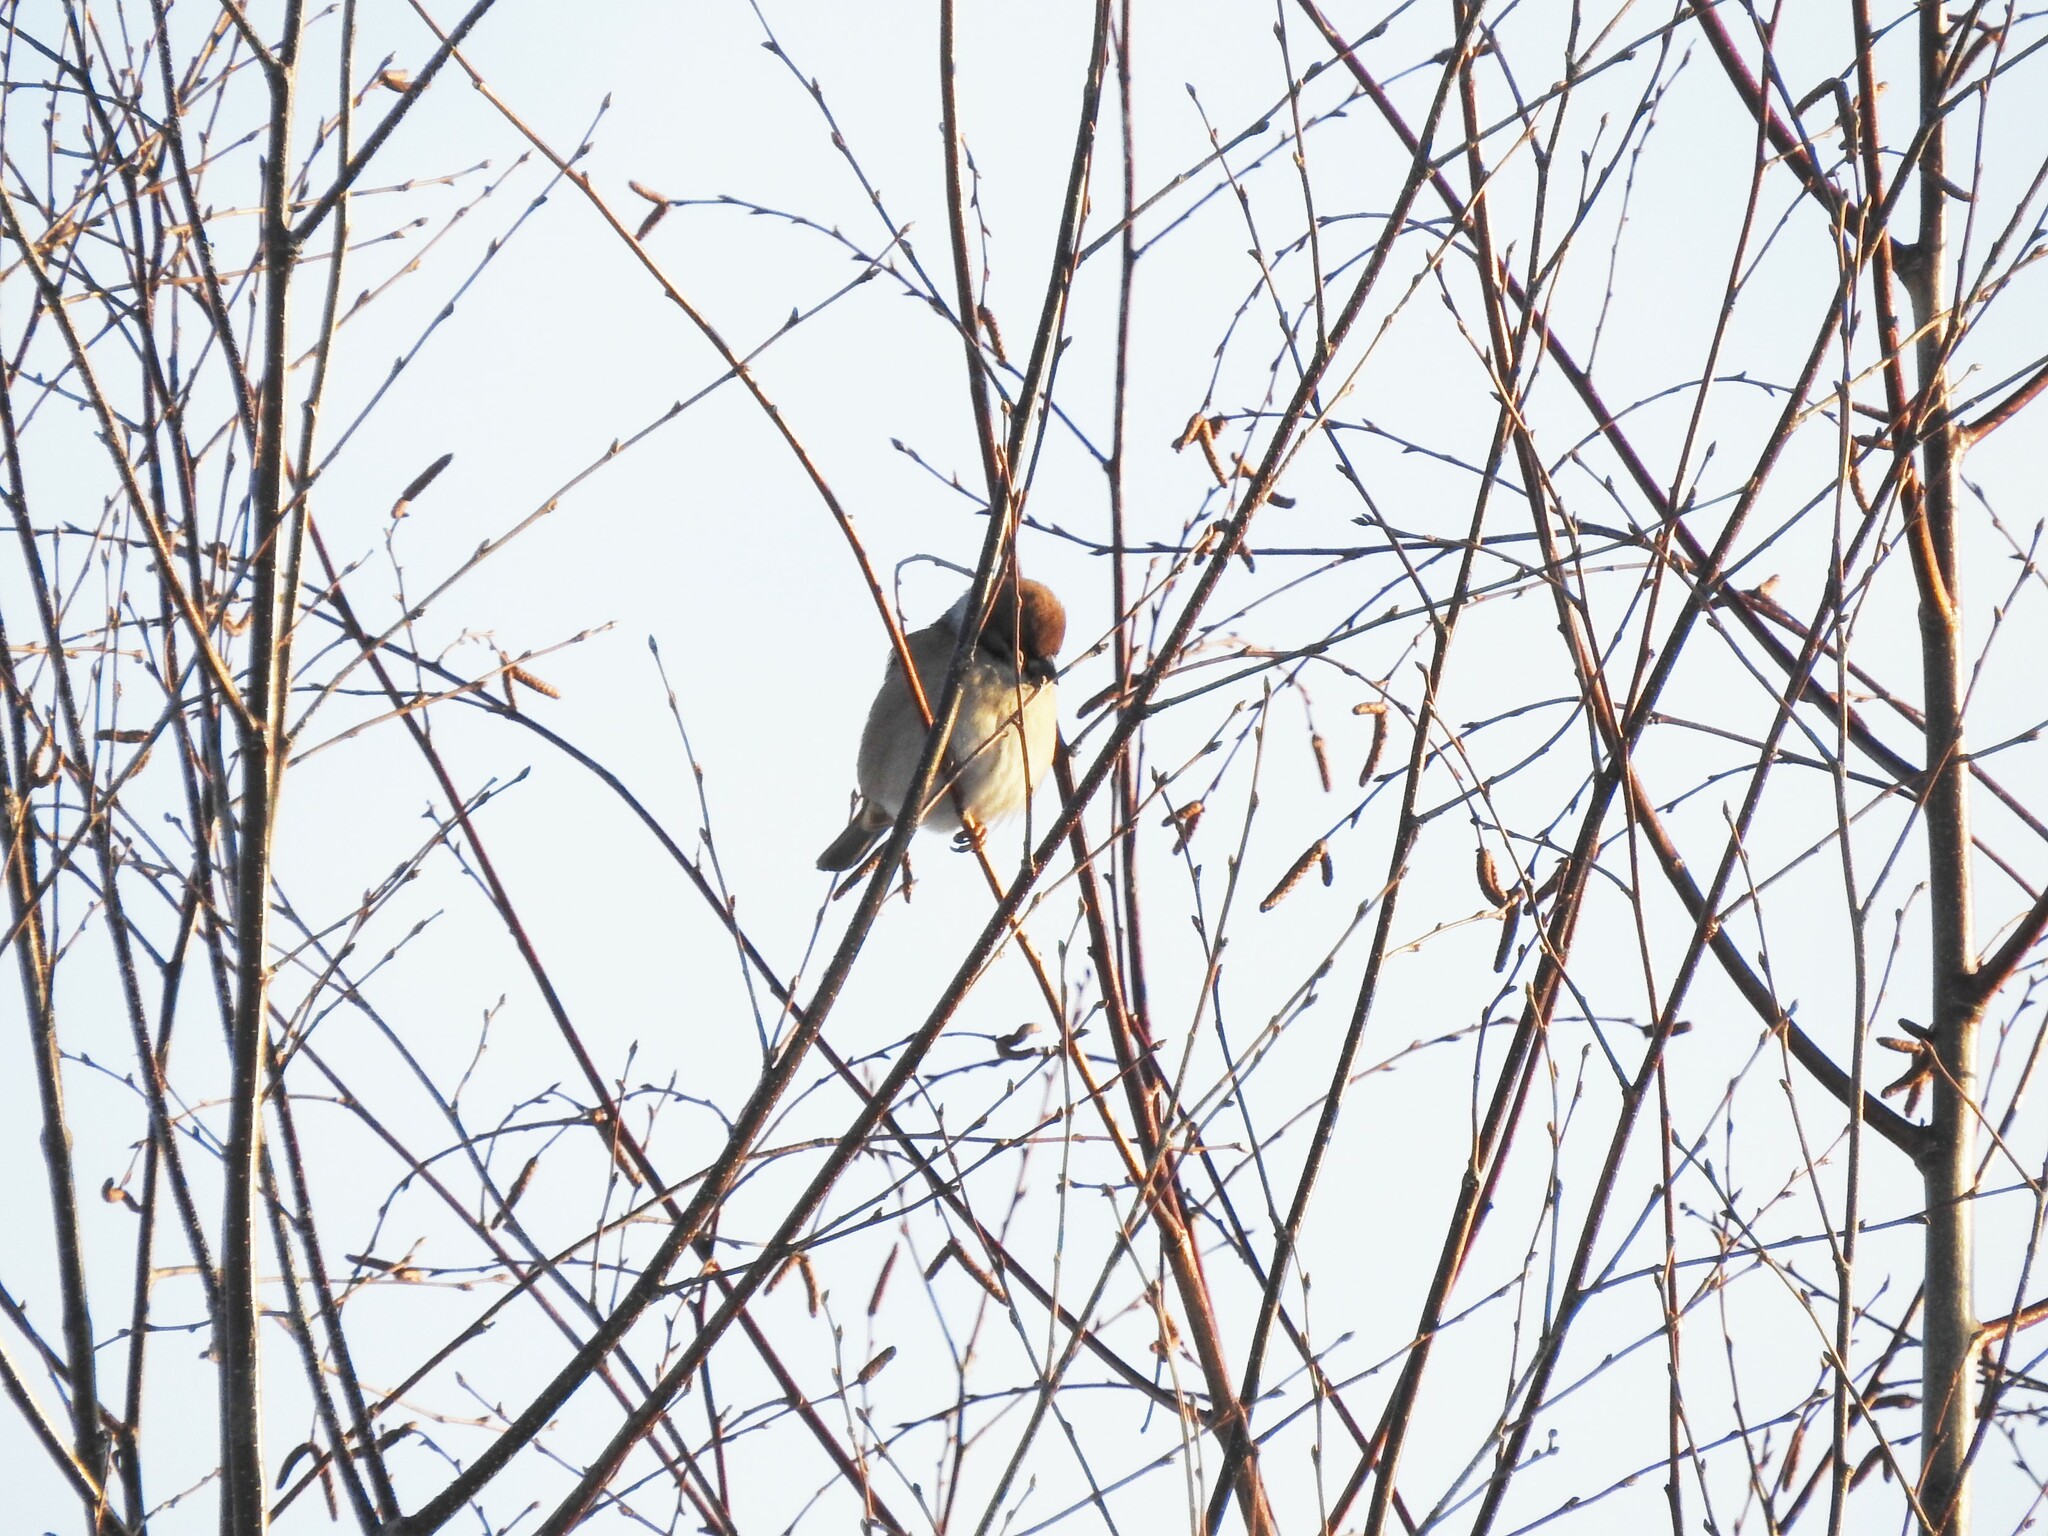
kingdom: Animalia
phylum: Chordata
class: Aves
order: Passeriformes
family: Passeridae
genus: Passer
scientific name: Passer montanus
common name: Eurasian tree sparrow
